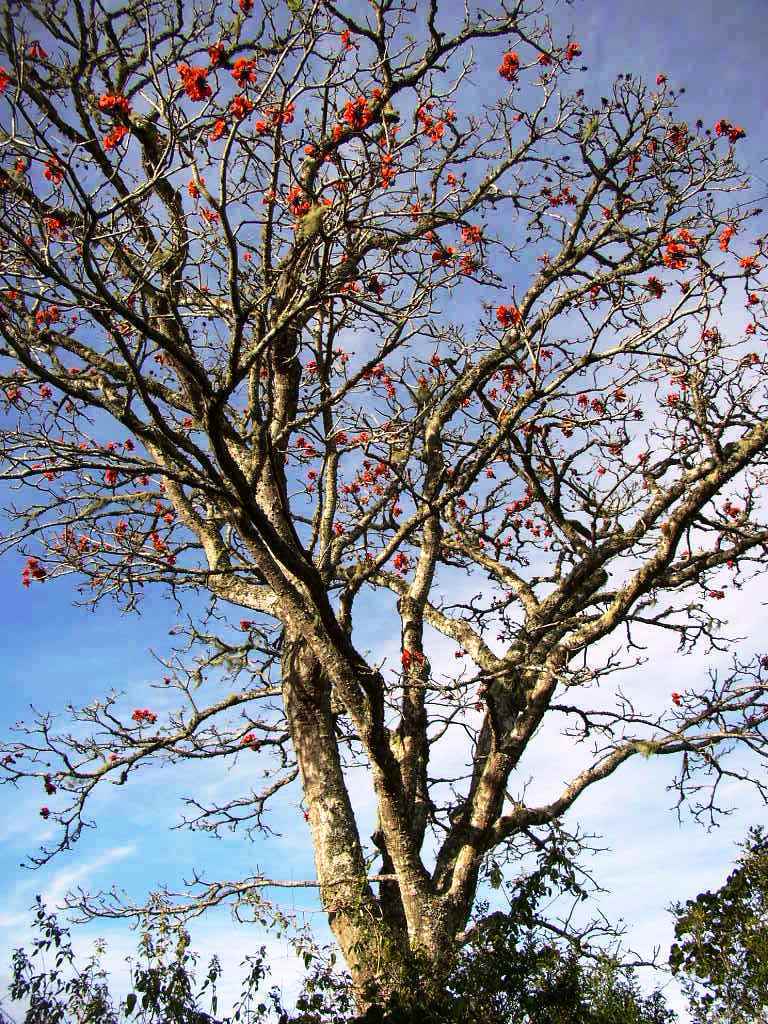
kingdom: Plantae
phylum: Tracheophyta
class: Magnoliopsida
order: Fabales
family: Fabaceae
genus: Erythrina
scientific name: Erythrina caffra
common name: Coast coral tree
